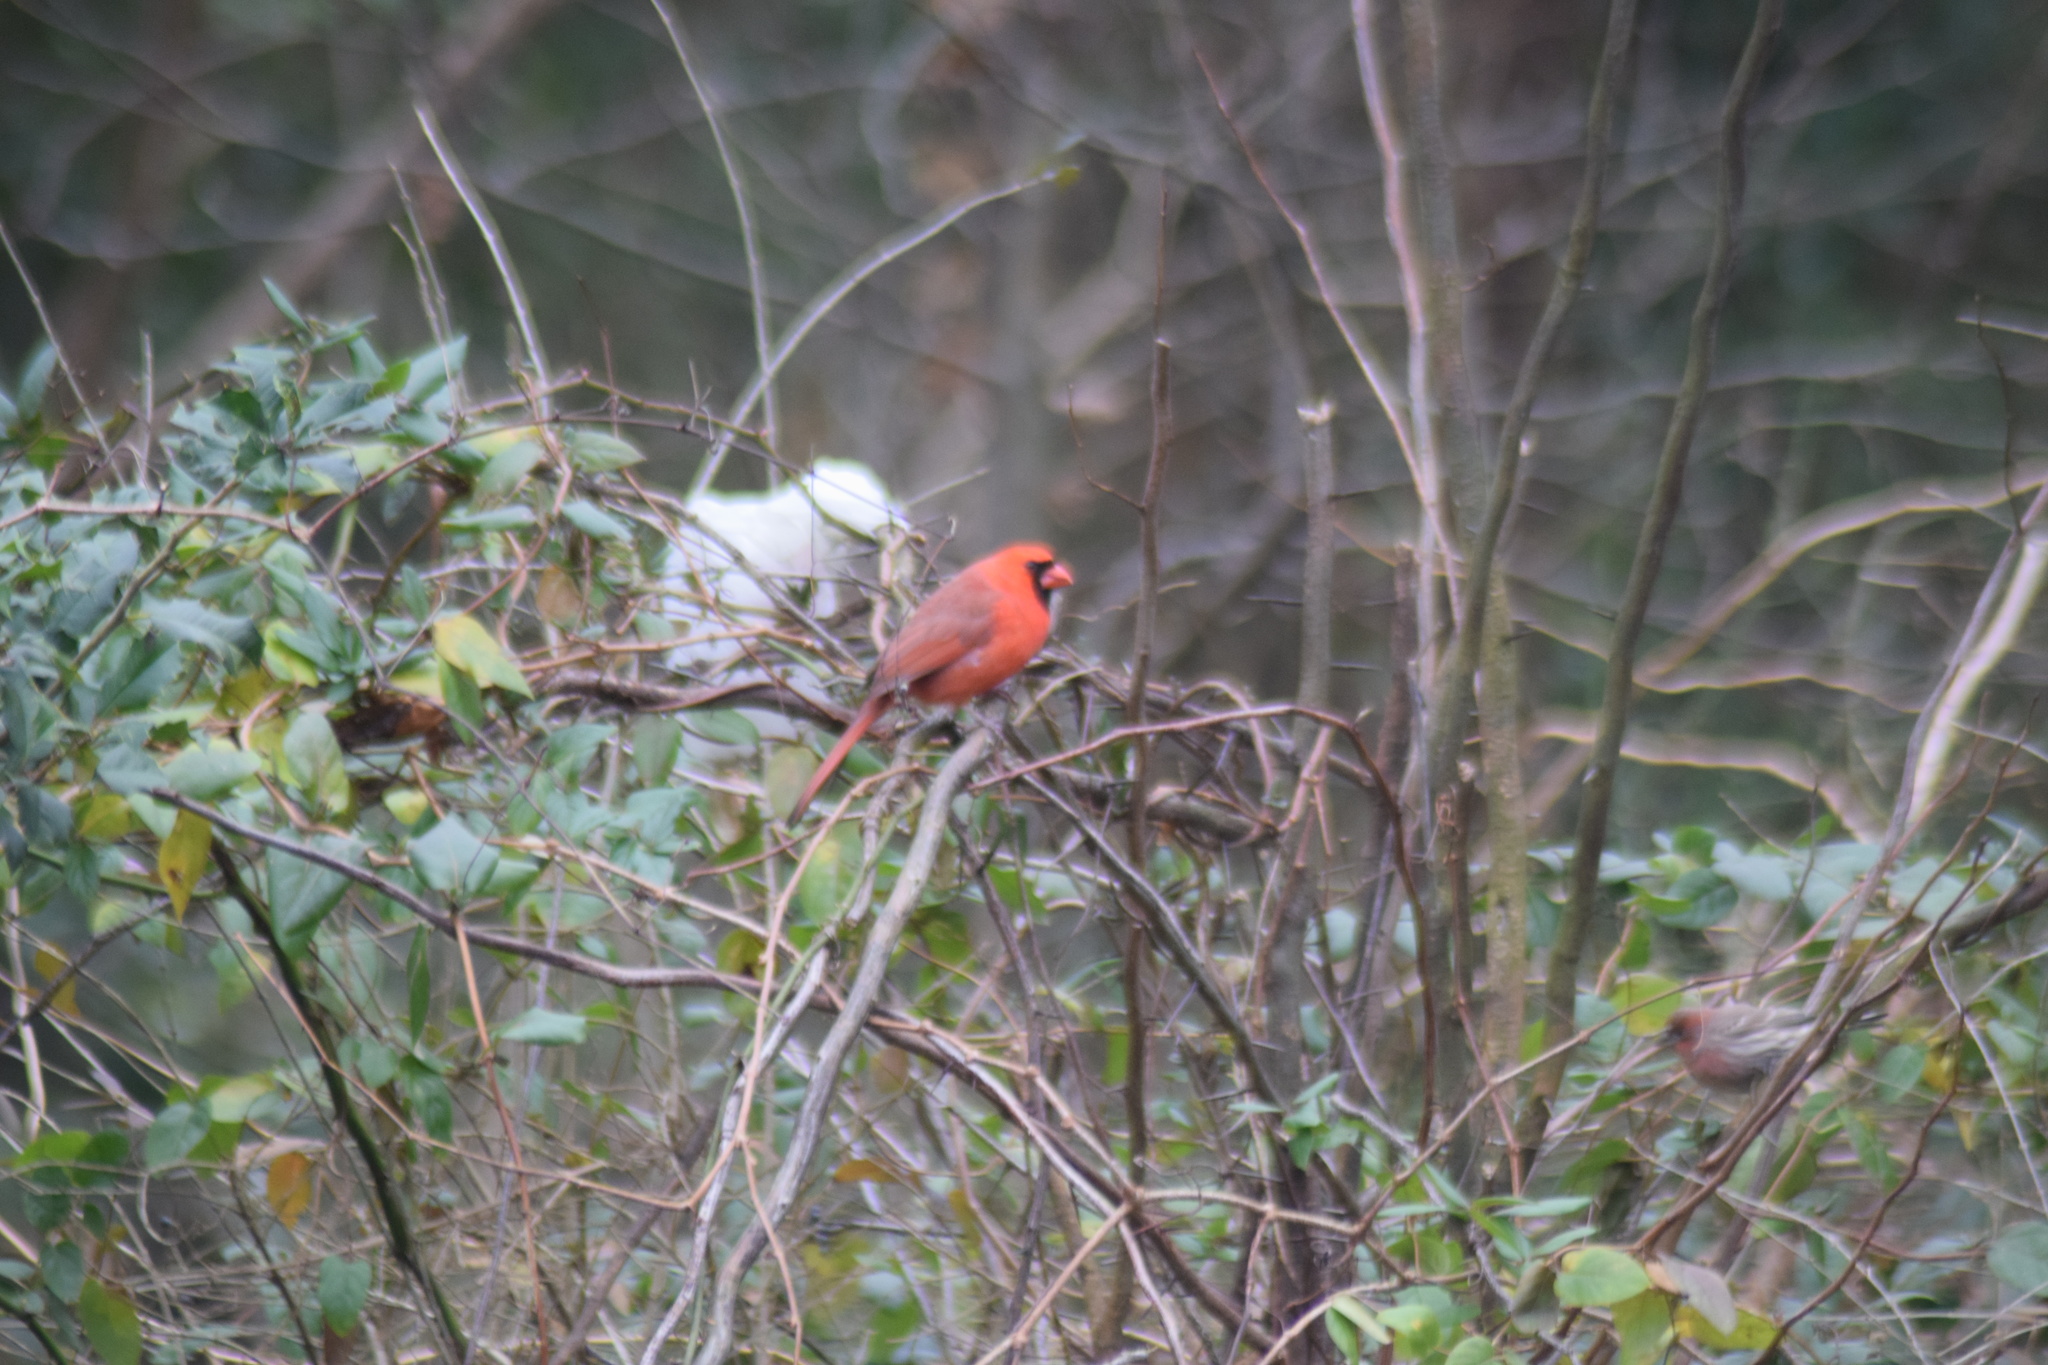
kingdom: Animalia
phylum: Chordata
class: Aves
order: Passeriformes
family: Cardinalidae
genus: Cardinalis
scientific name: Cardinalis cardinalis
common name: Northern cardinal
